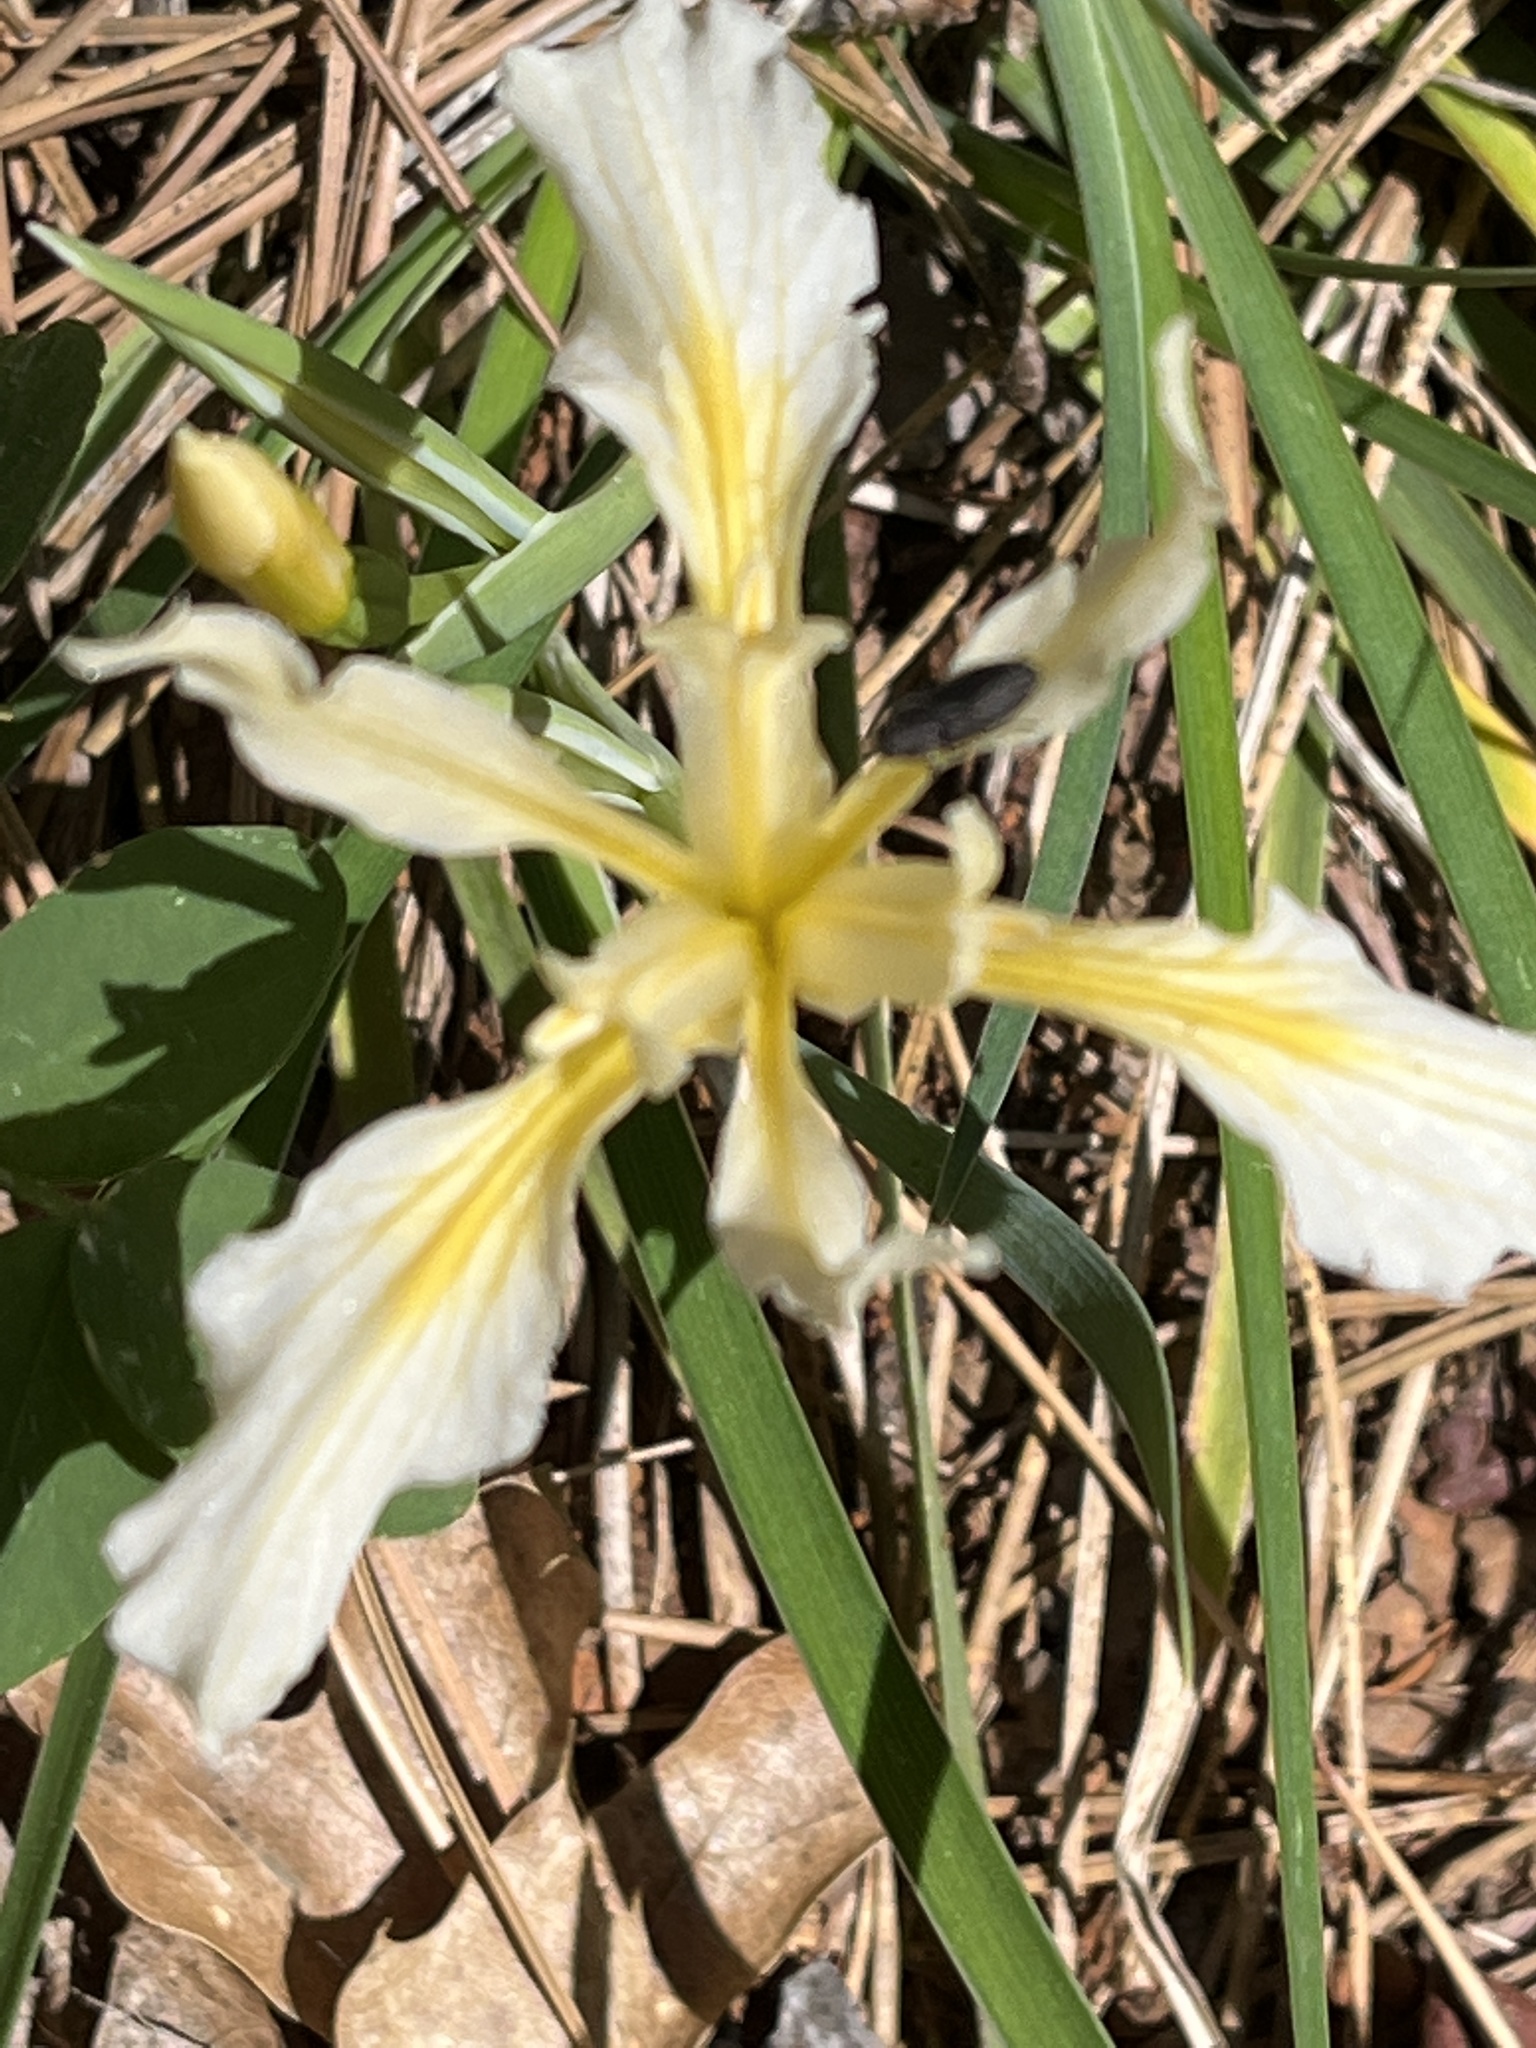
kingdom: Plantae
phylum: Tracheophyta
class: Liliopsida
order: Asparagales
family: Iridaceae
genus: Iris
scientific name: Iris hartwegii
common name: Sierra iris
